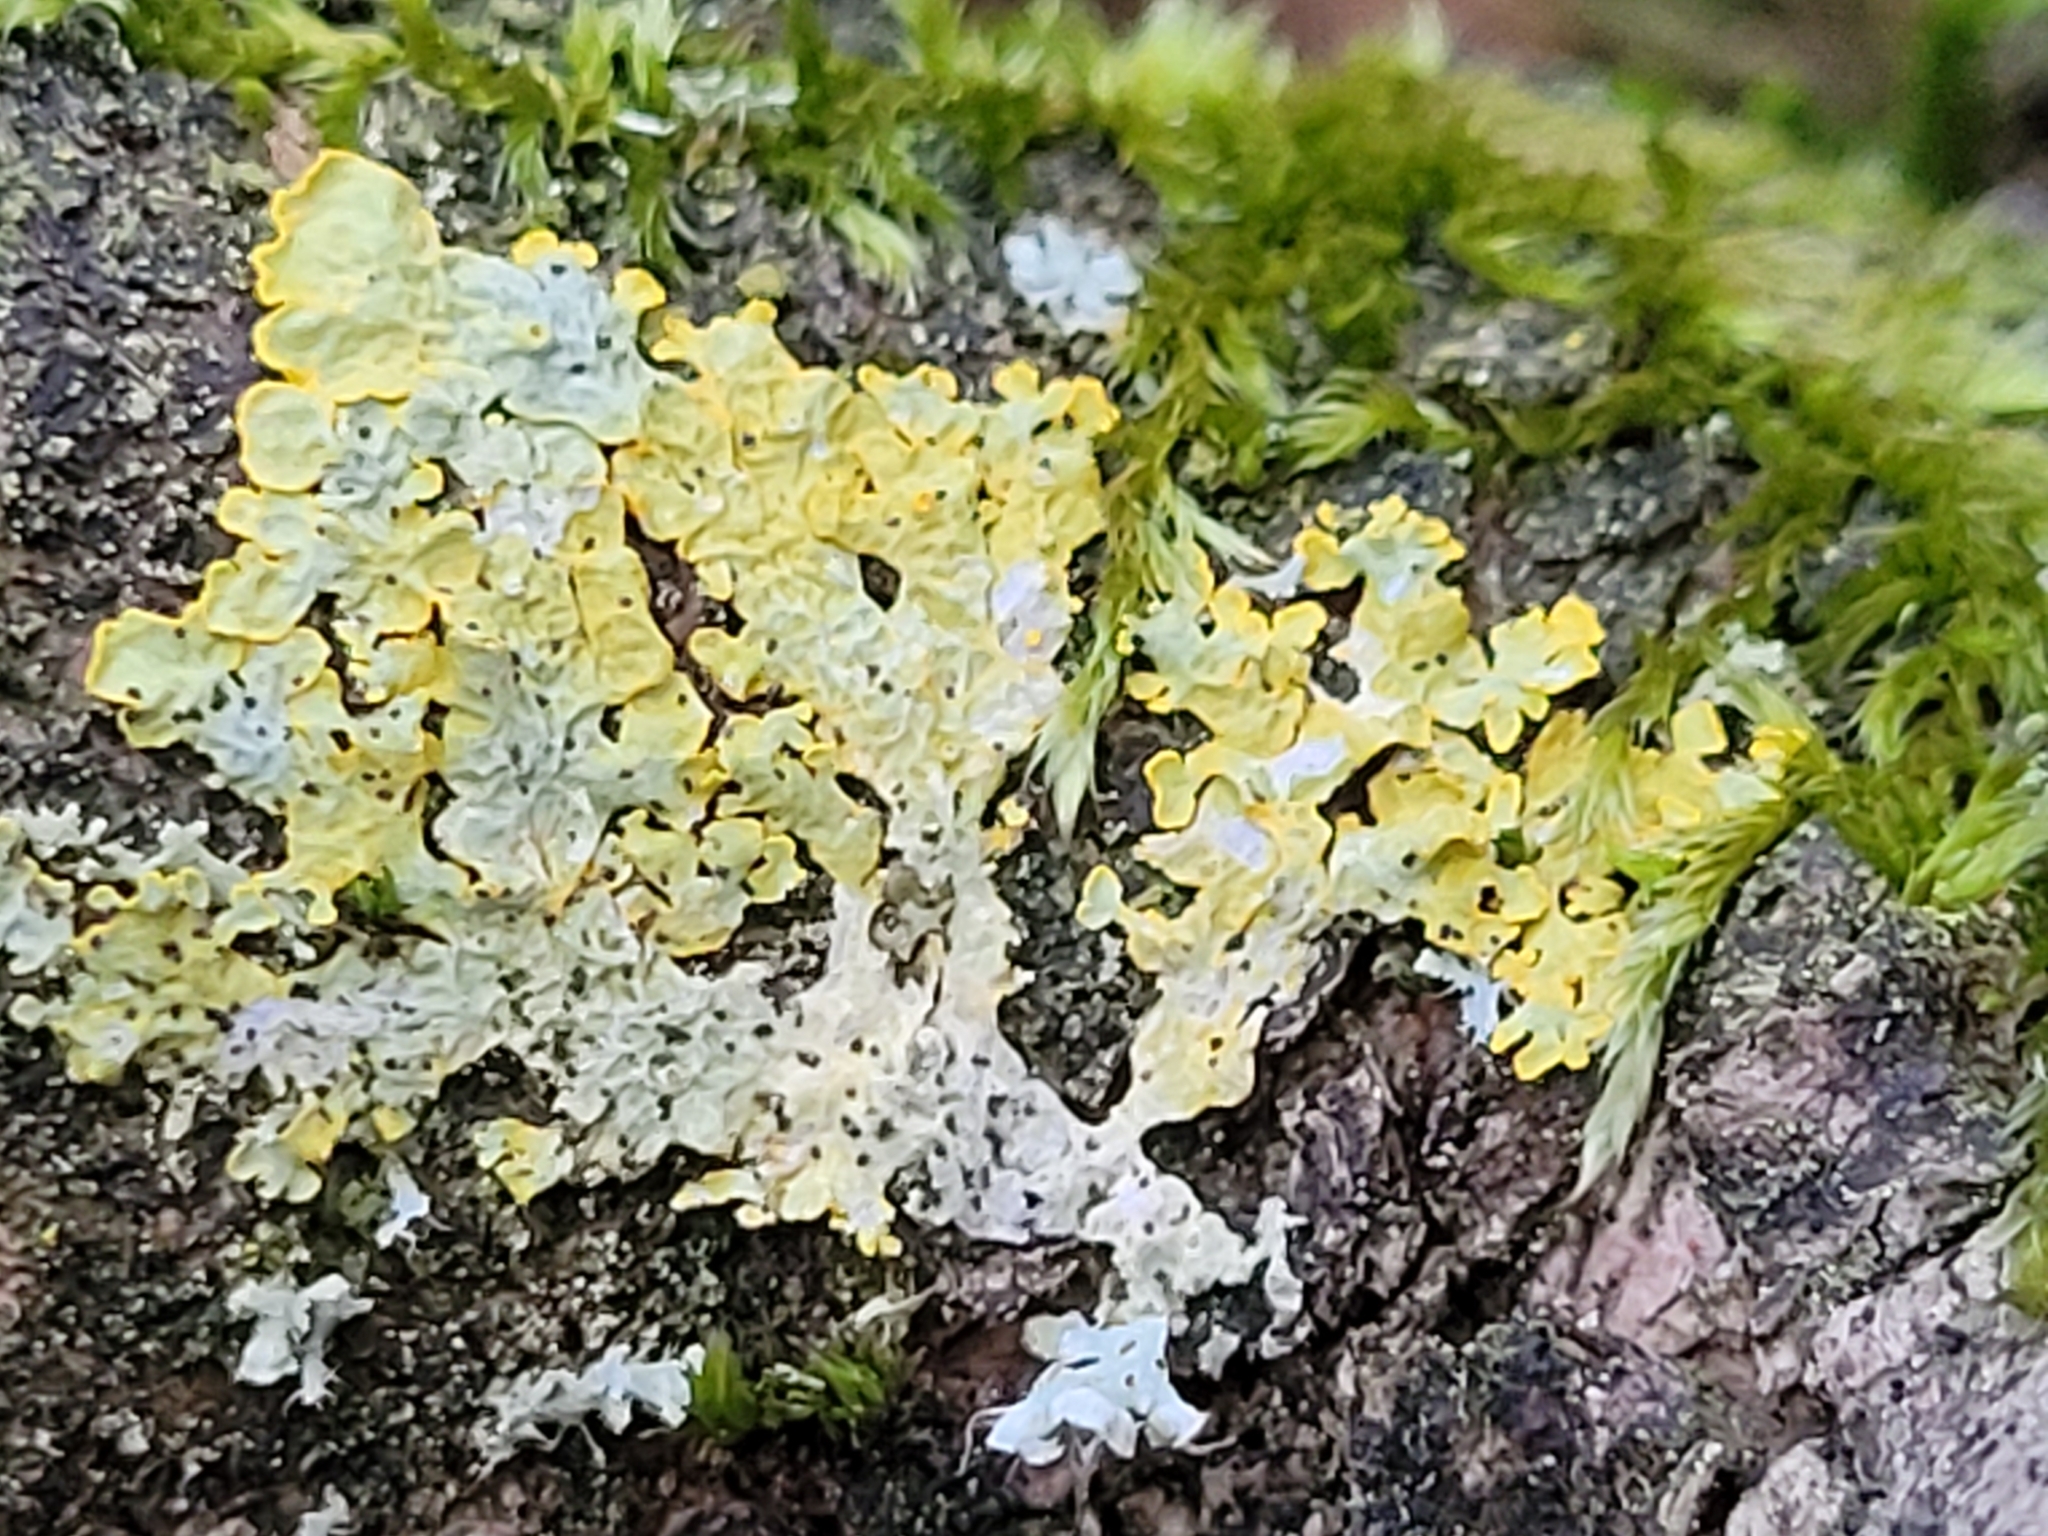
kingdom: Fungi
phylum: Ascomycota
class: Lecanoromycetes
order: Teloschistales
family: Teloschistaceae
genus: Xanthoria
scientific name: Xanthoria parietina
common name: Common orange lichen
